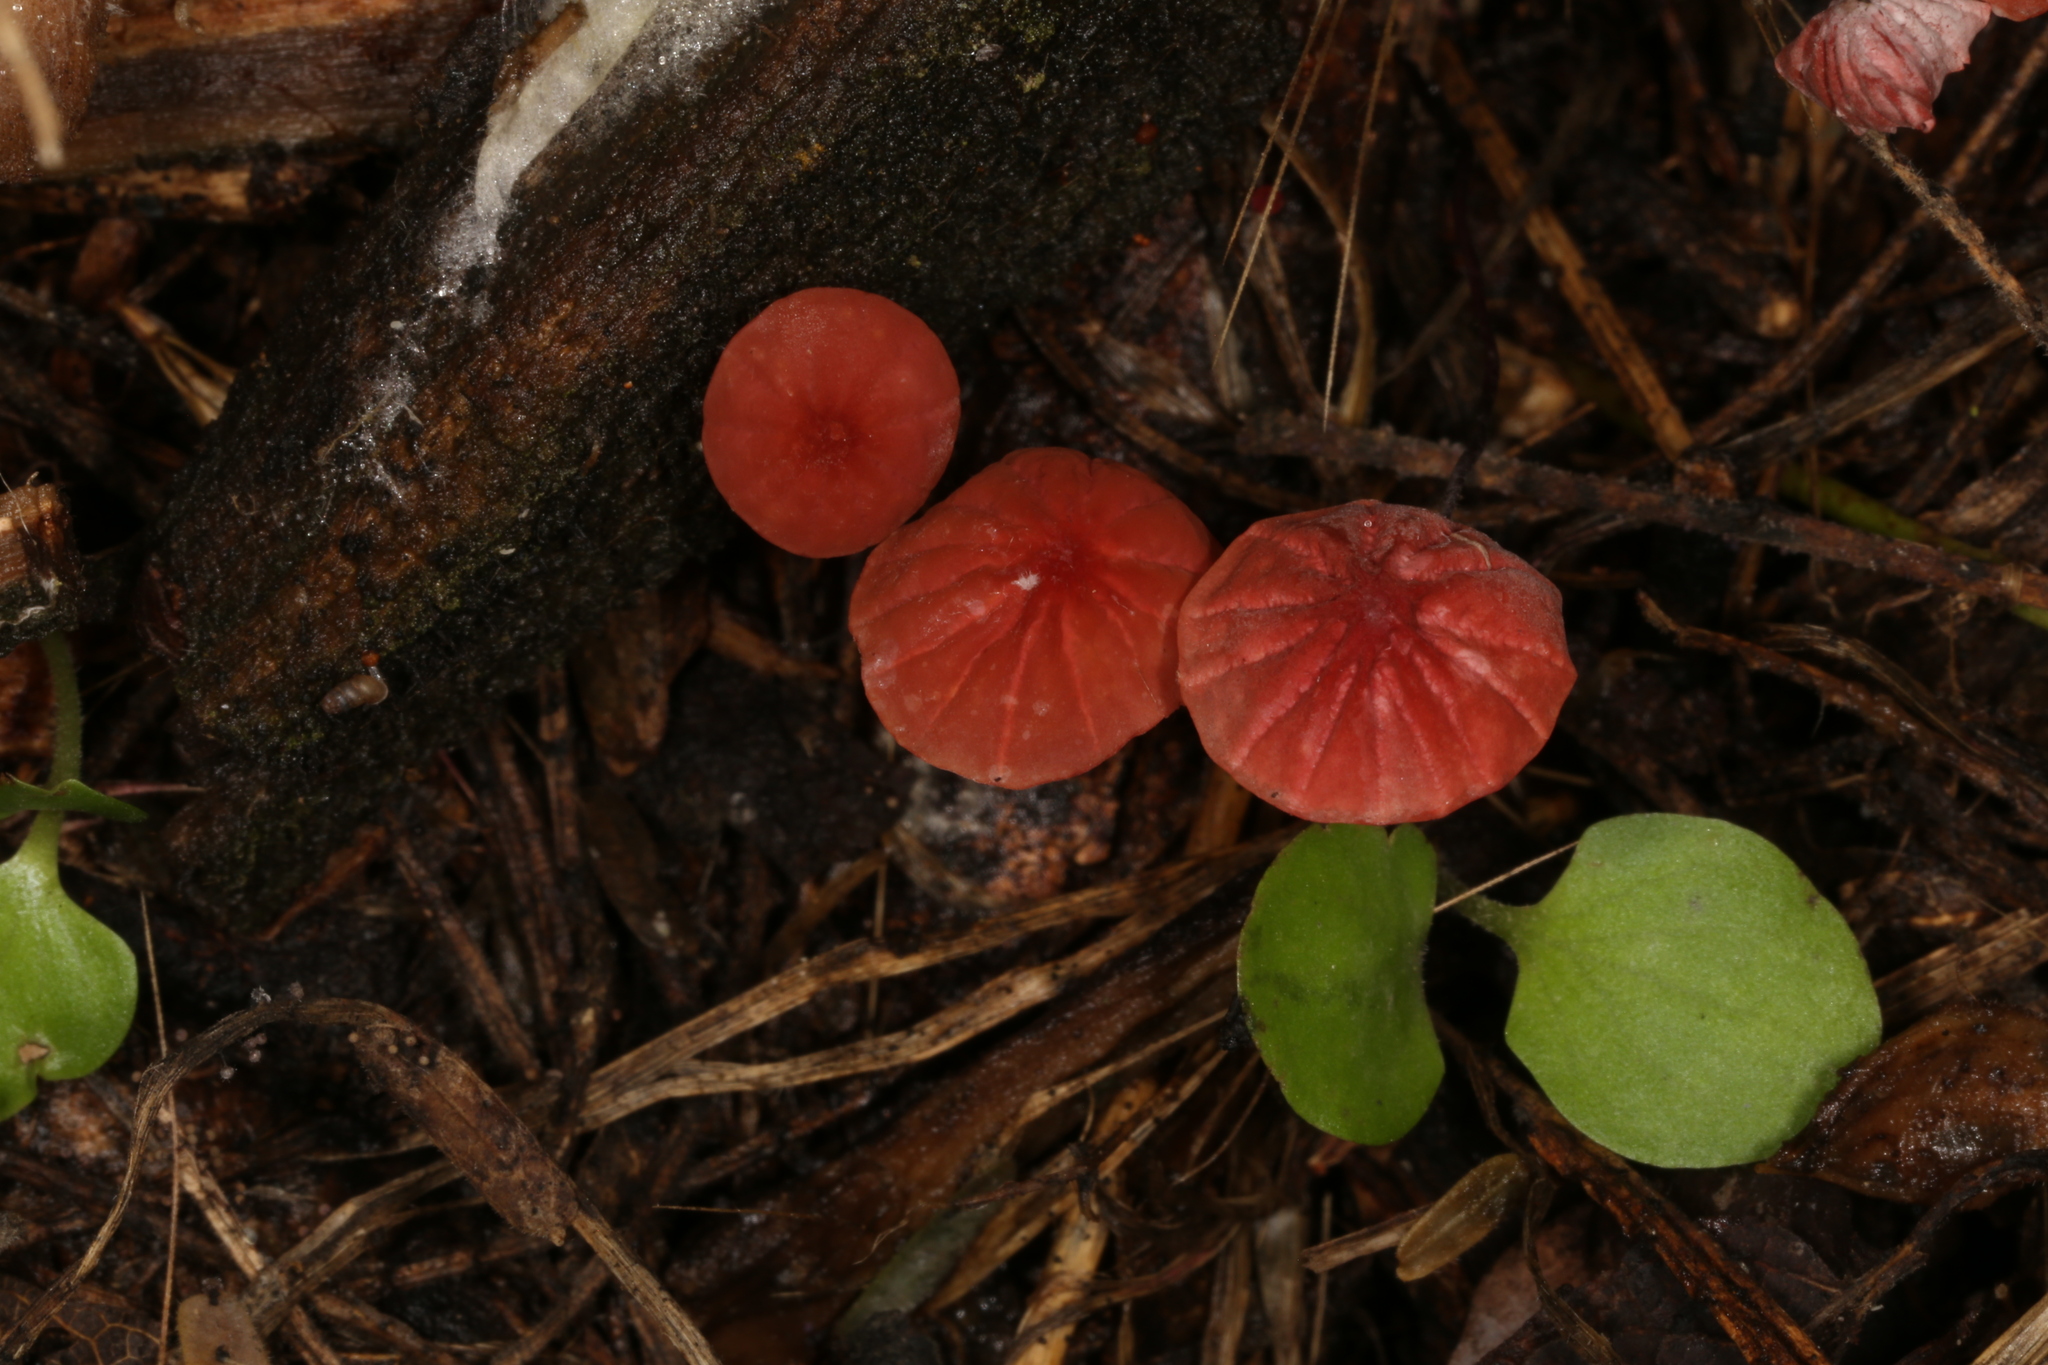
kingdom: Fungi
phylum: Basidiomycota
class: Agaricomycetes
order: Agaricales
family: Marasmiaceae
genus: Marasmius
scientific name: Marasmius haematocephalus
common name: Purple pinwheel
